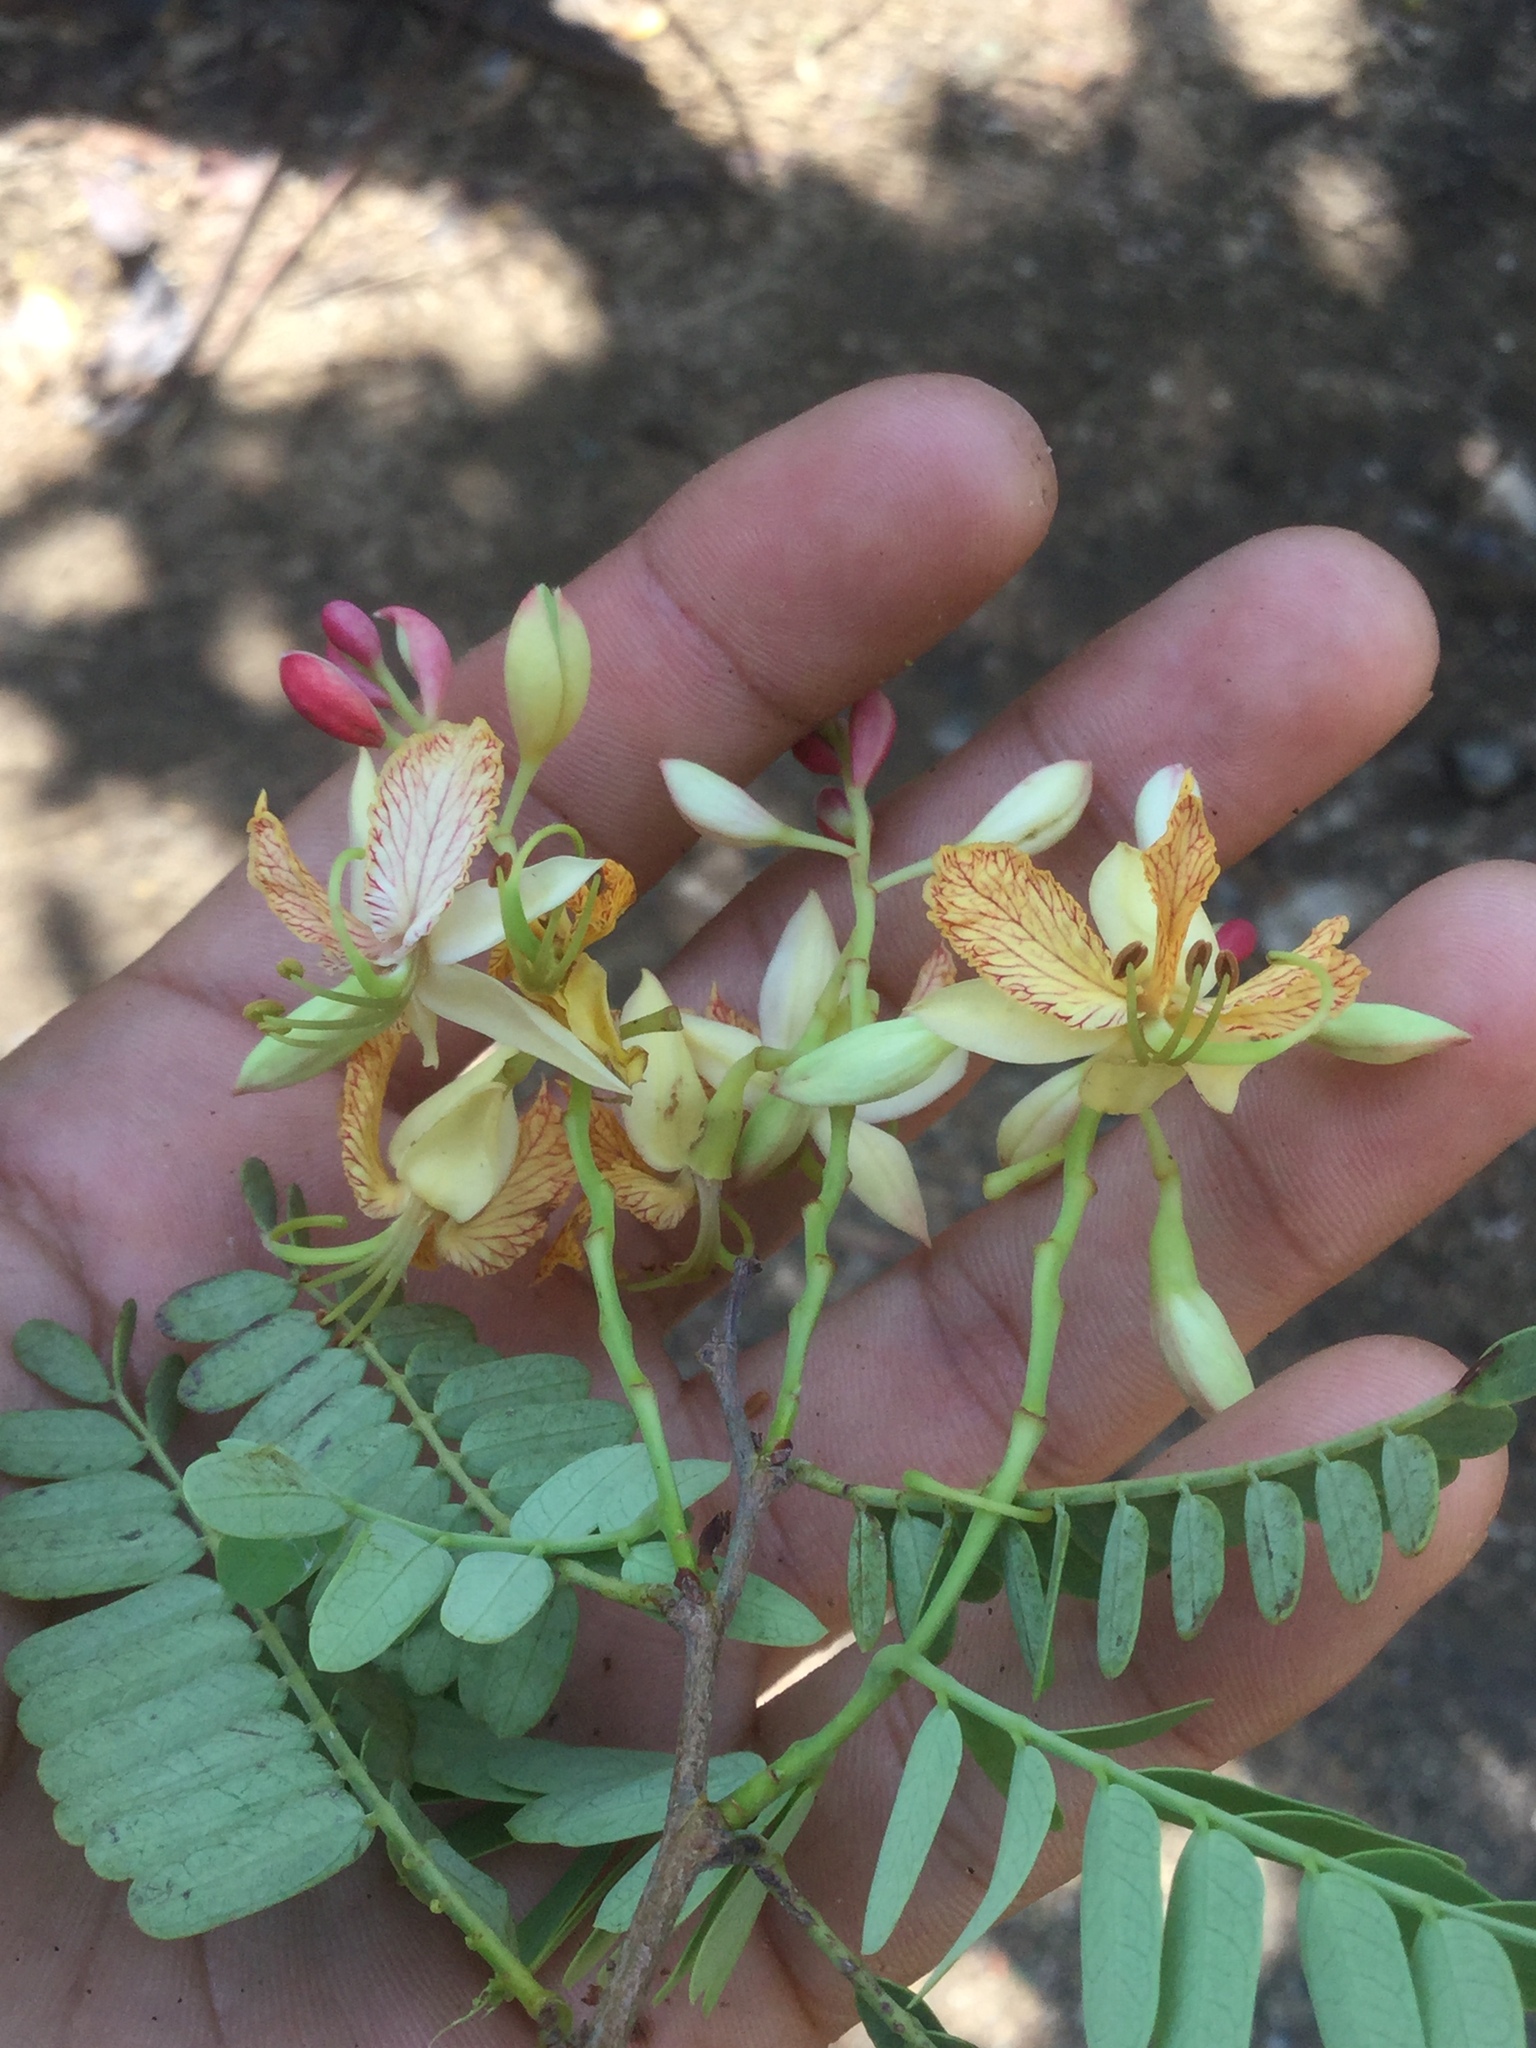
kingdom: Plantae
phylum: Tracheophyta
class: Magnoliopsida
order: Fabales
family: Fabaceae
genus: Tamarindus
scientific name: Tamarindus indica
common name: Tamarind
